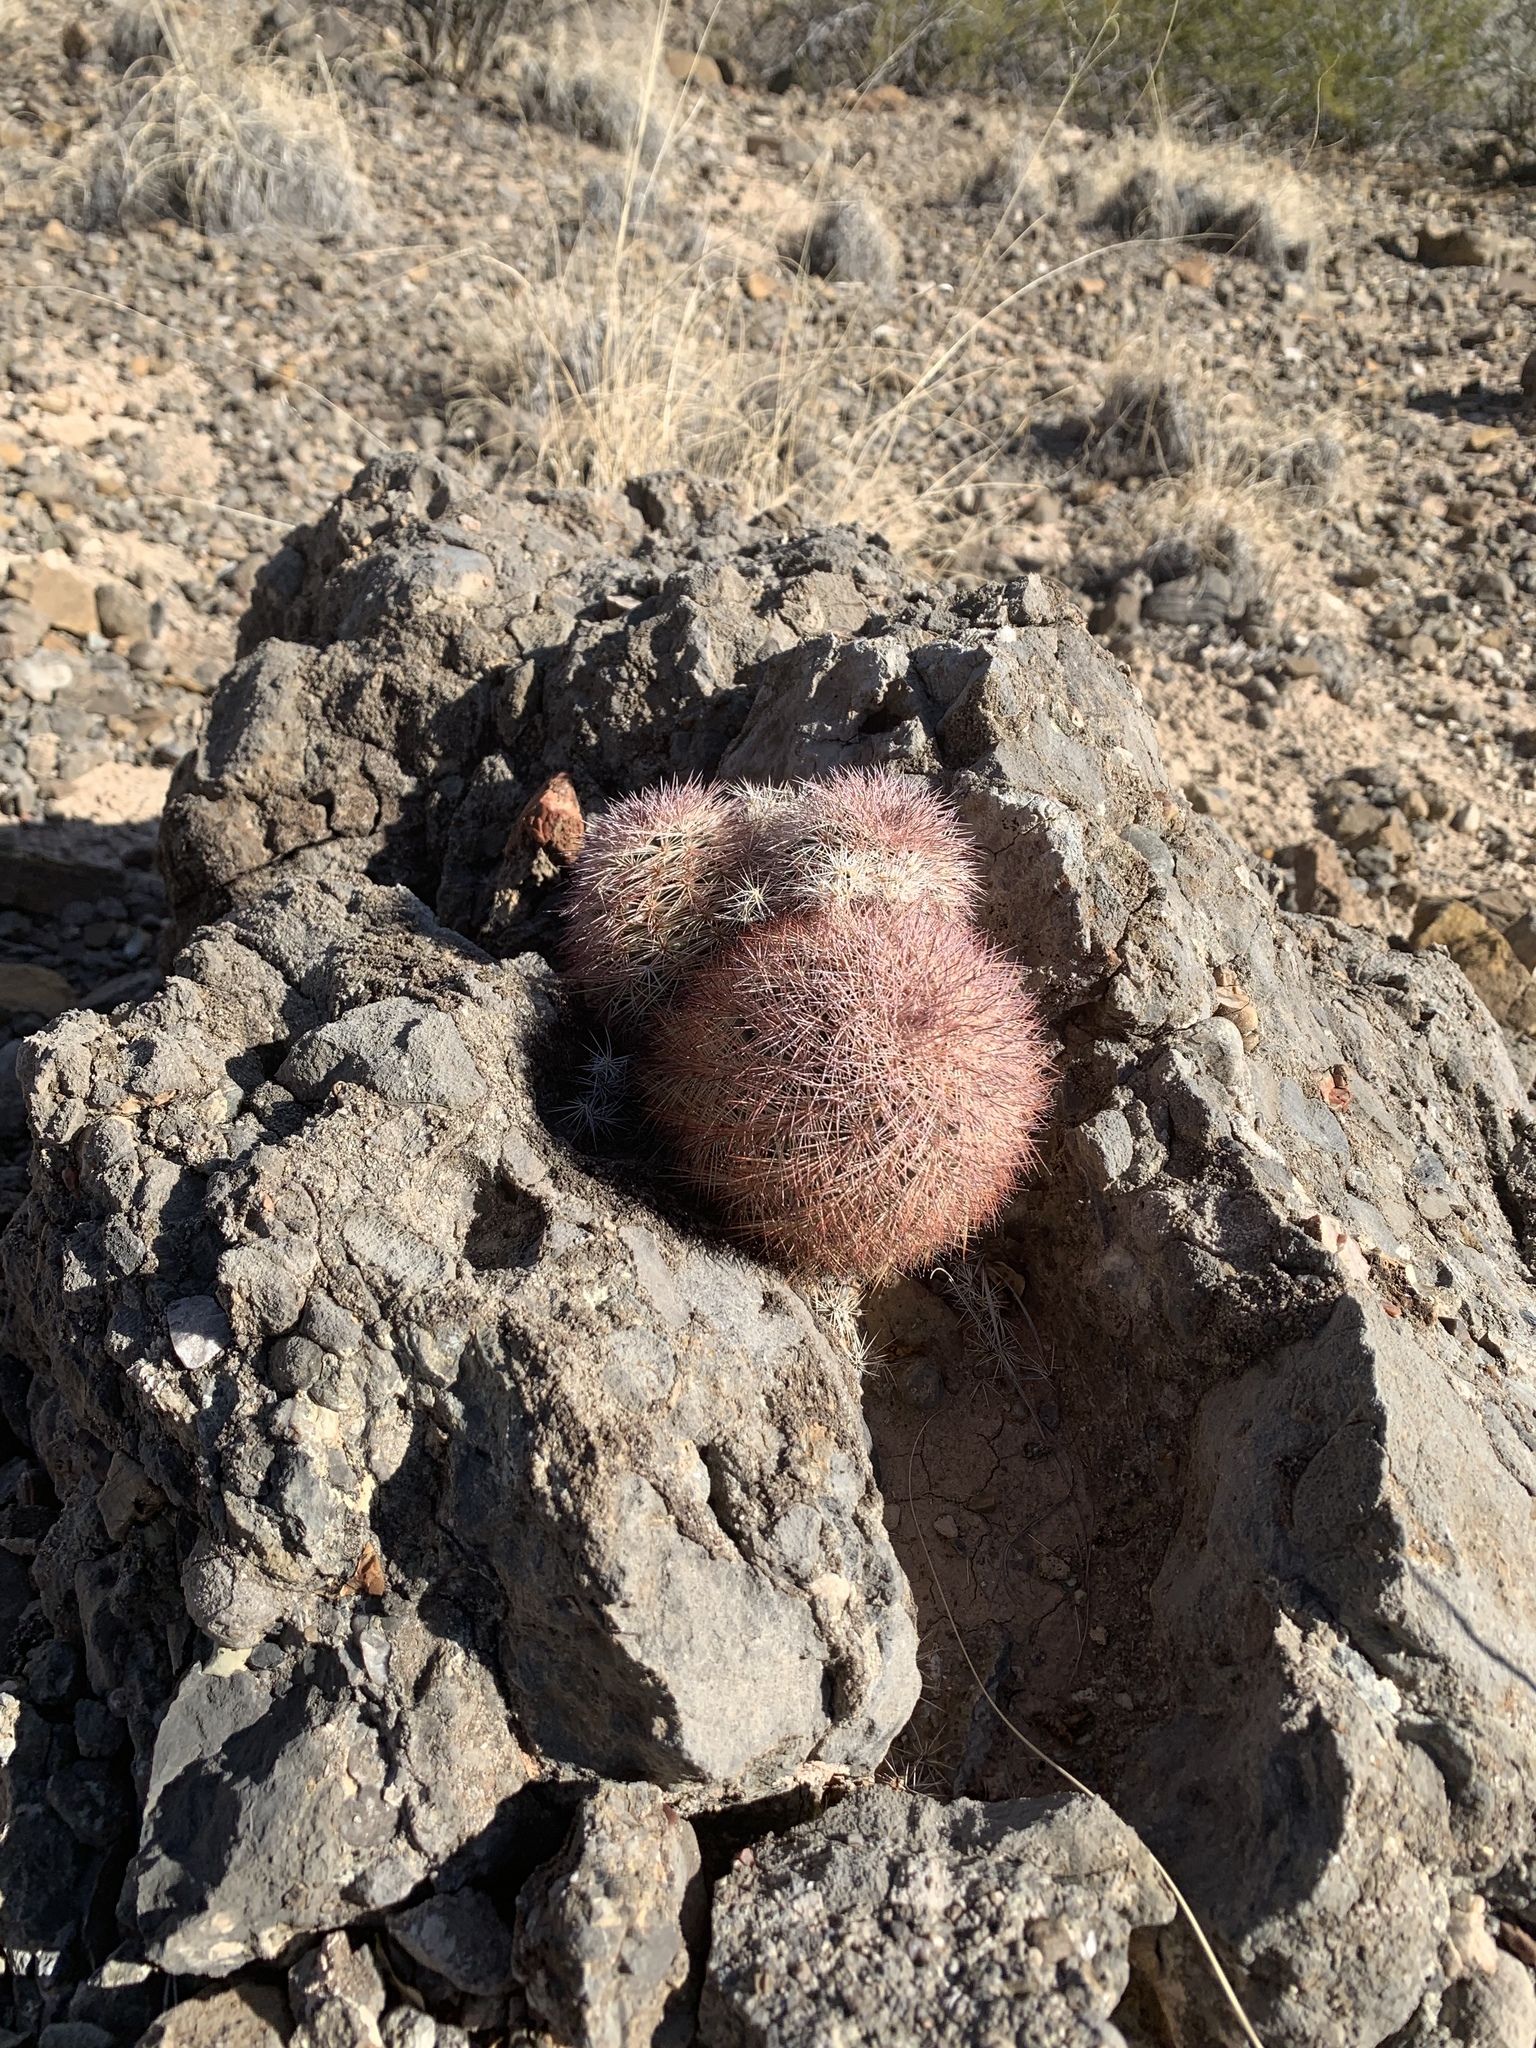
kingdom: Plantae
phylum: Tracheophyta
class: Magnoliopsida
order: Caryophyllales
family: Cactaceae
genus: Echinocereus
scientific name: Echinocereus dasyacanthus
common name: Spiny hedgehog cactus
